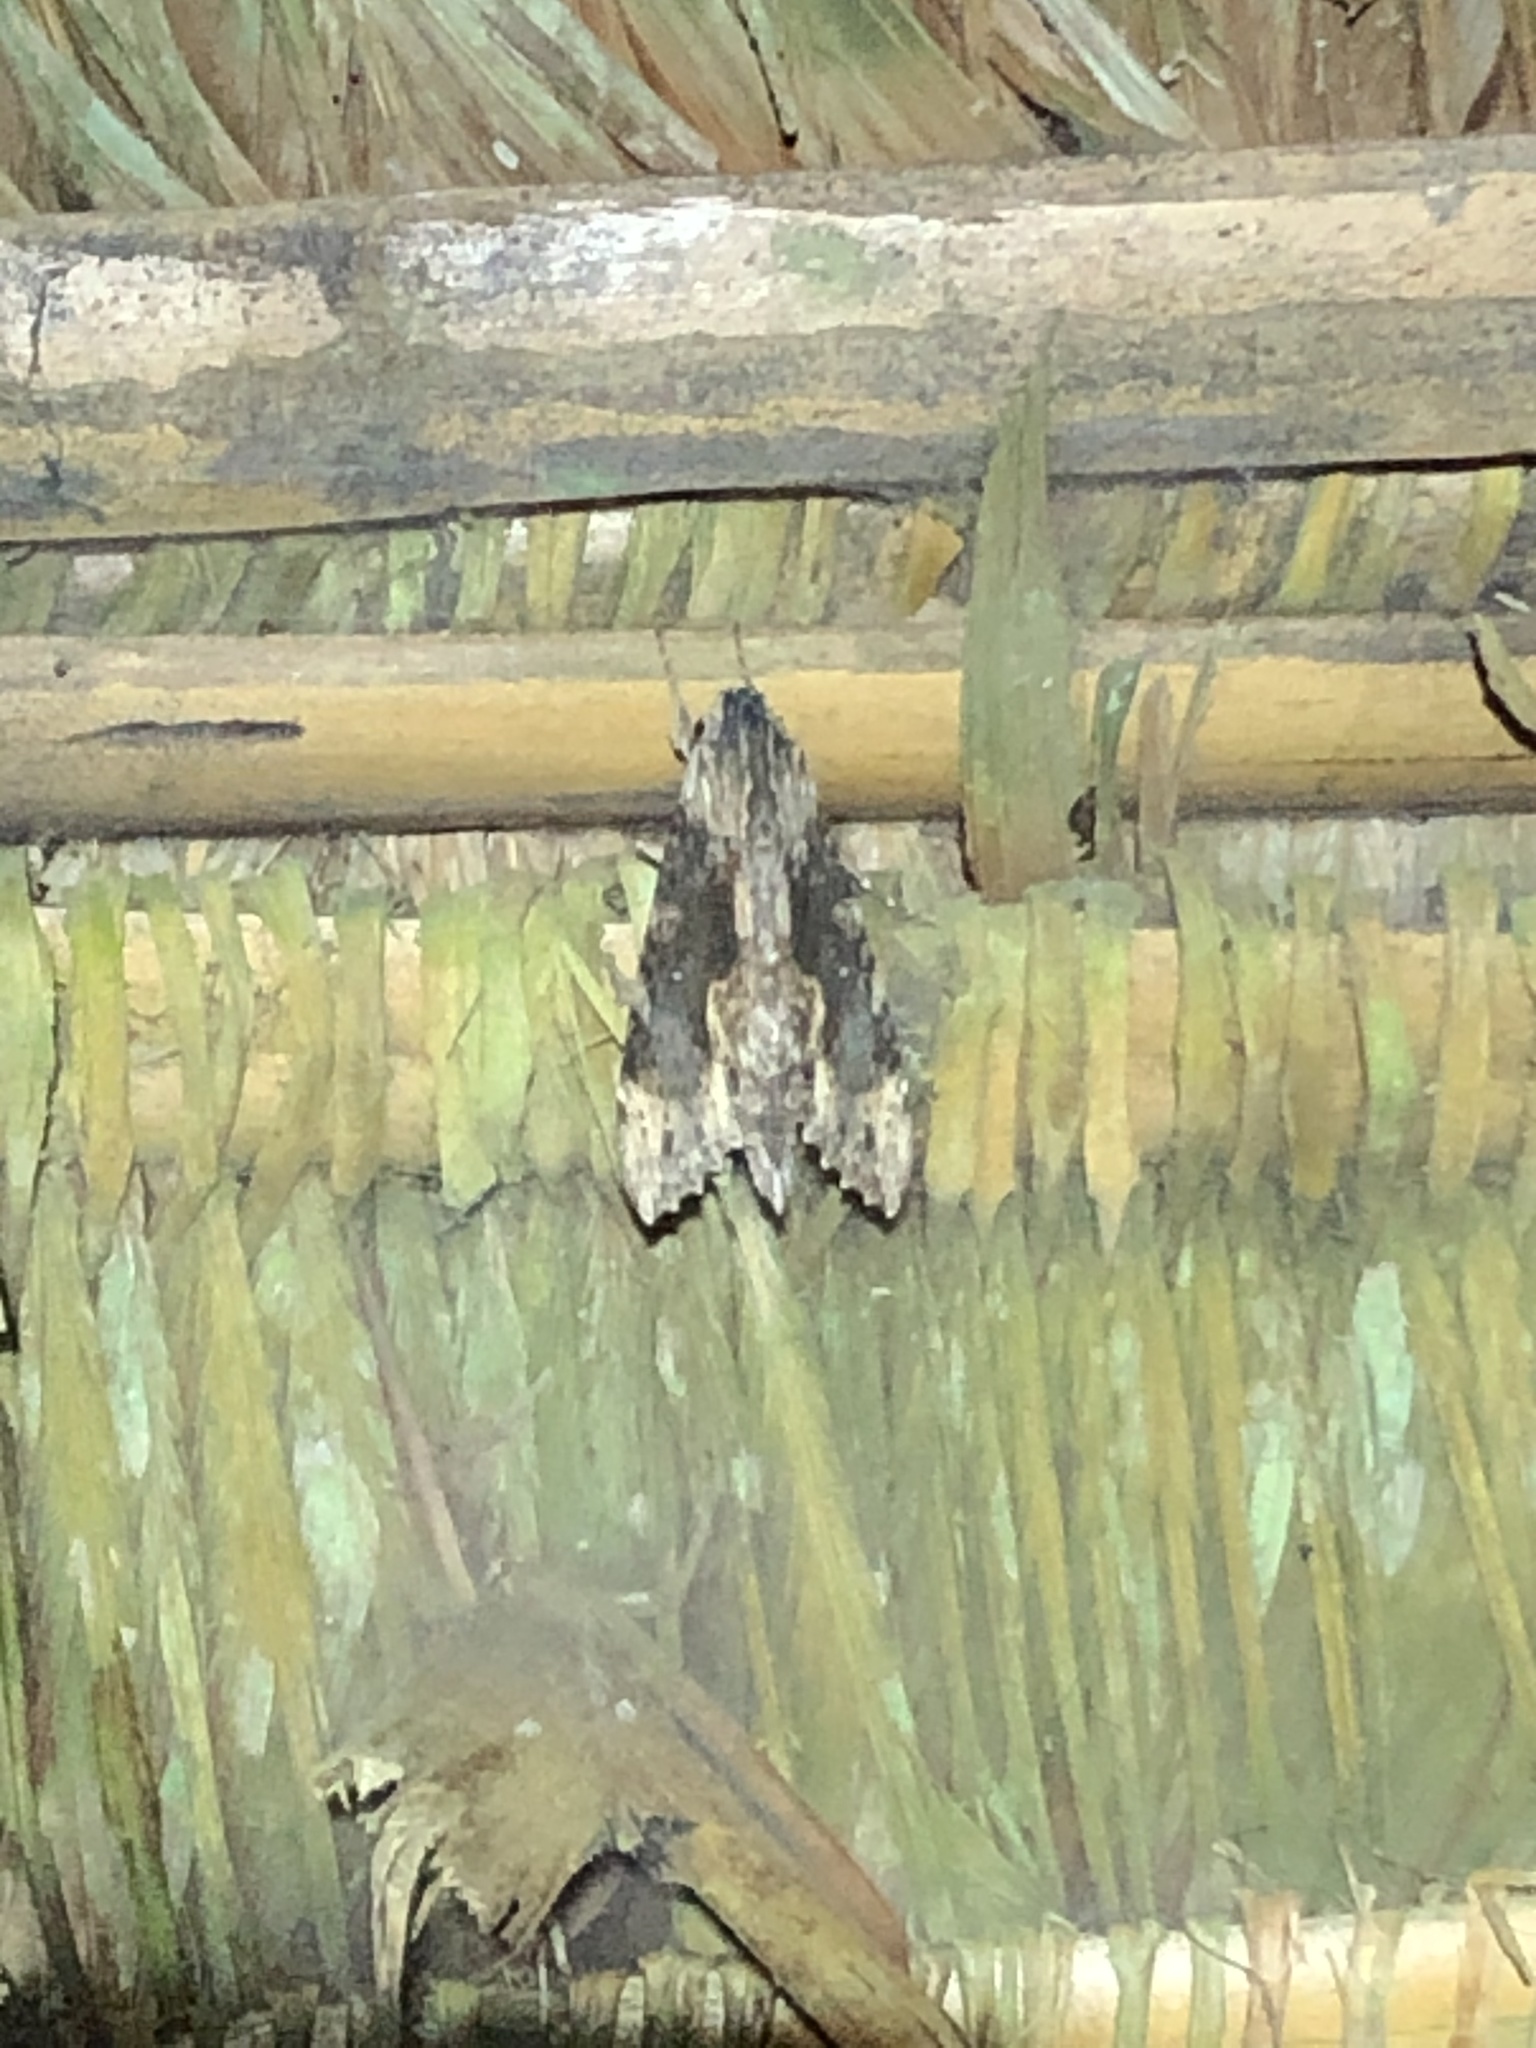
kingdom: Animalia
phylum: Arthropoda
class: Insecta
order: Lepidoptera
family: Sphingidae
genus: Erinnyis
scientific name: Erinnyis oenotrus
